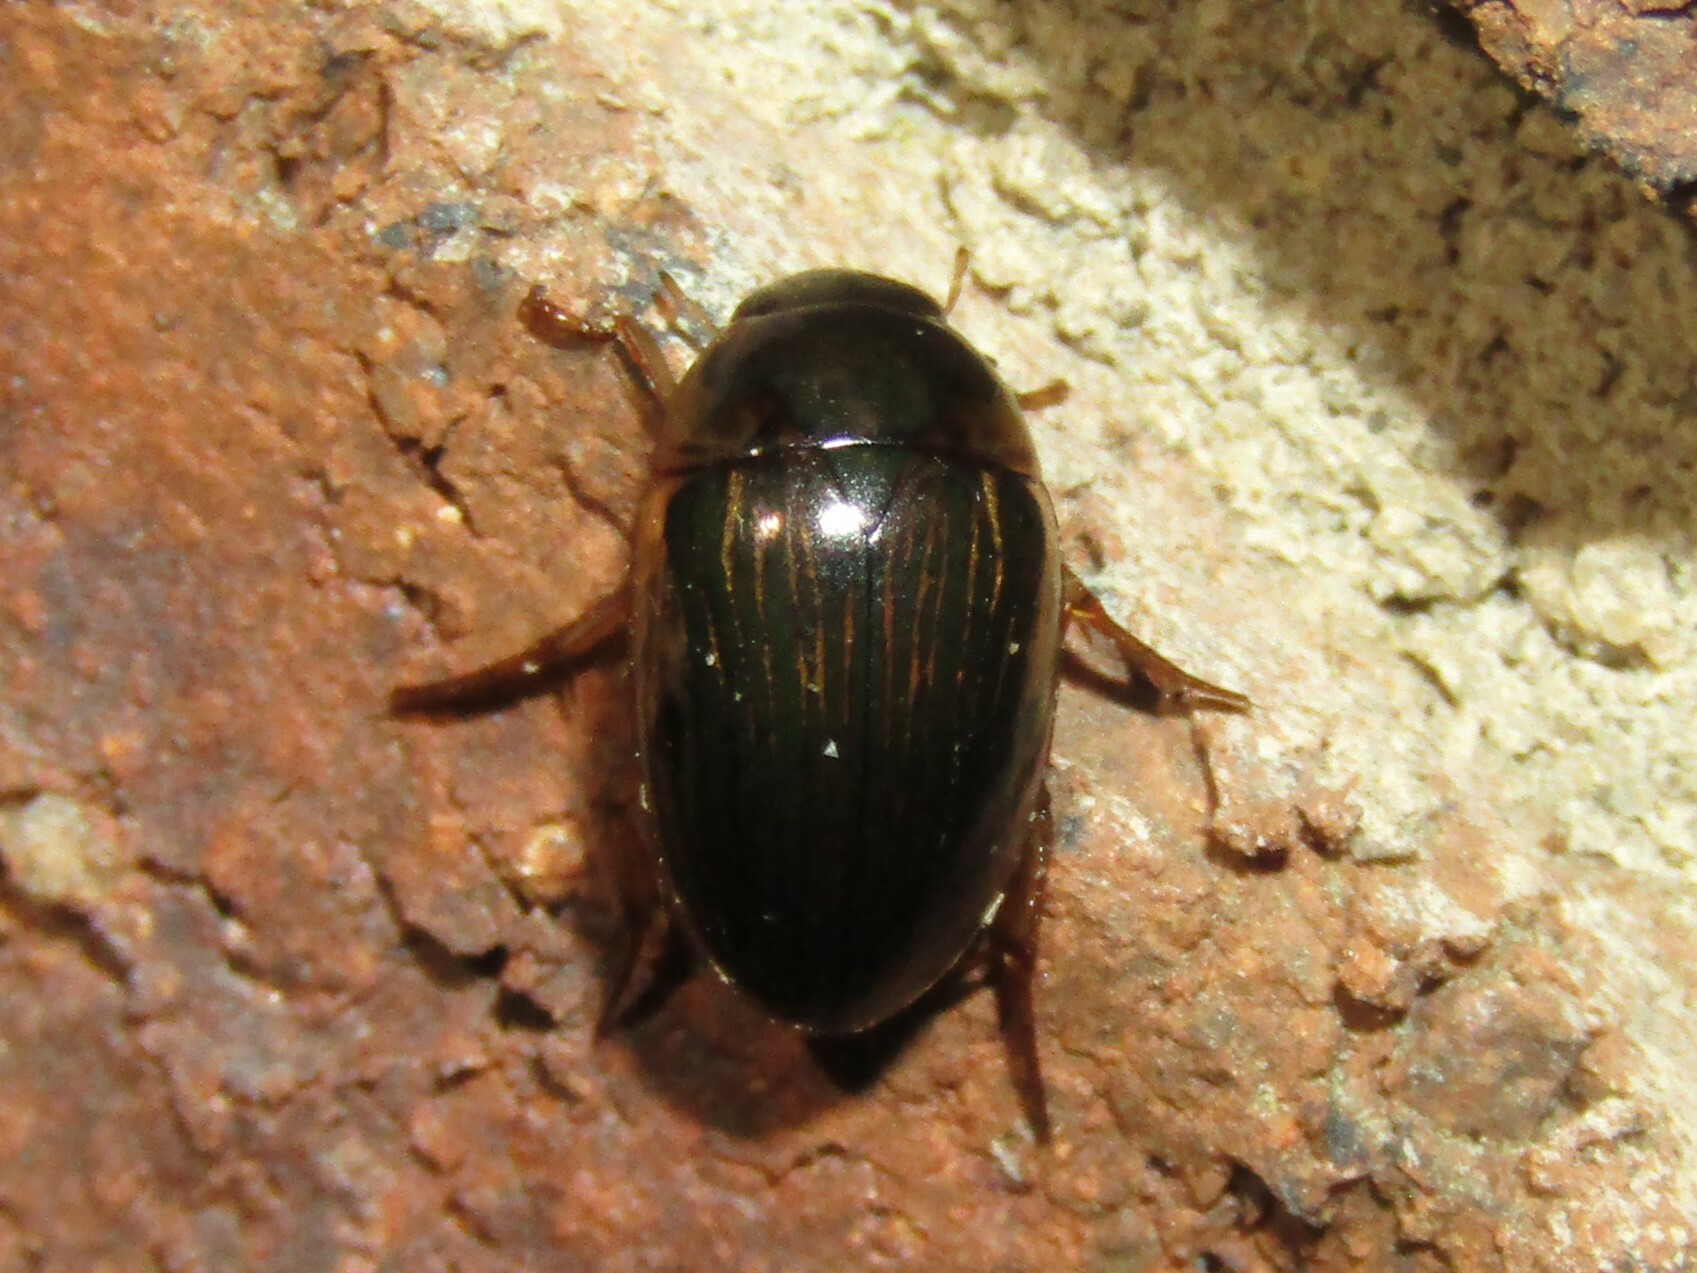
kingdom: Animalia
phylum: Arthropoda
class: Insecta
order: Coleoptera
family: Hydrophilidae
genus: Tropisternus
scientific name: Tropisternus collaris
